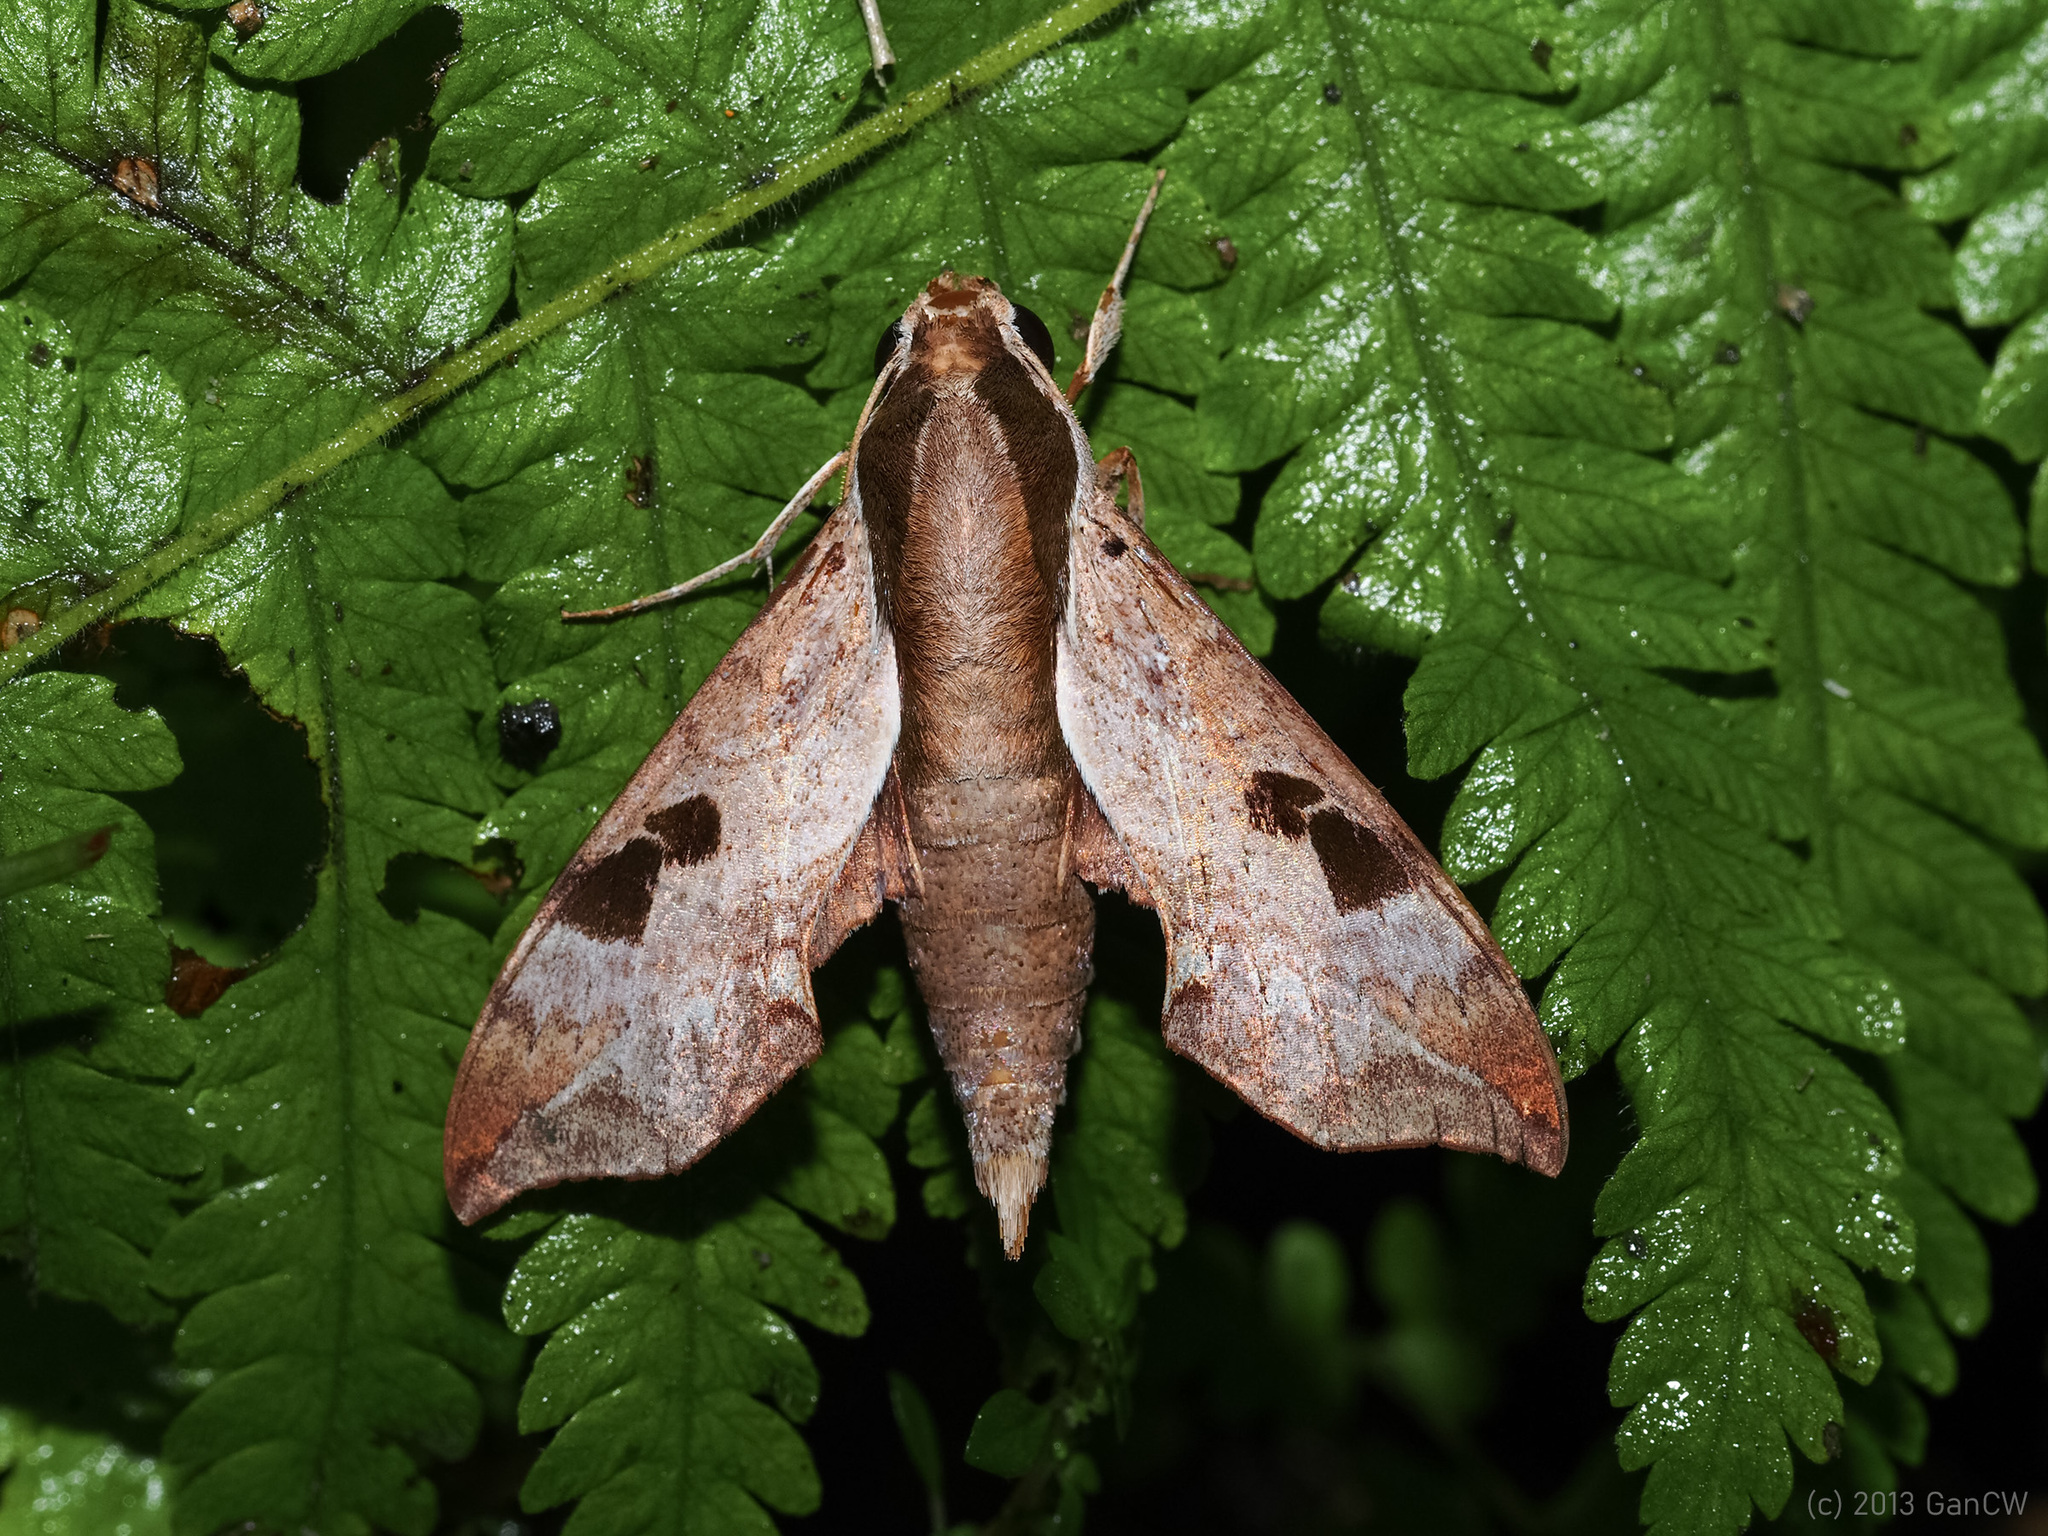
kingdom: Animalia
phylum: Arthropoda
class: Insecta
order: Lepidoptera
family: Sphingidae
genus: Enpinanga
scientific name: Enpinanga borneensis
